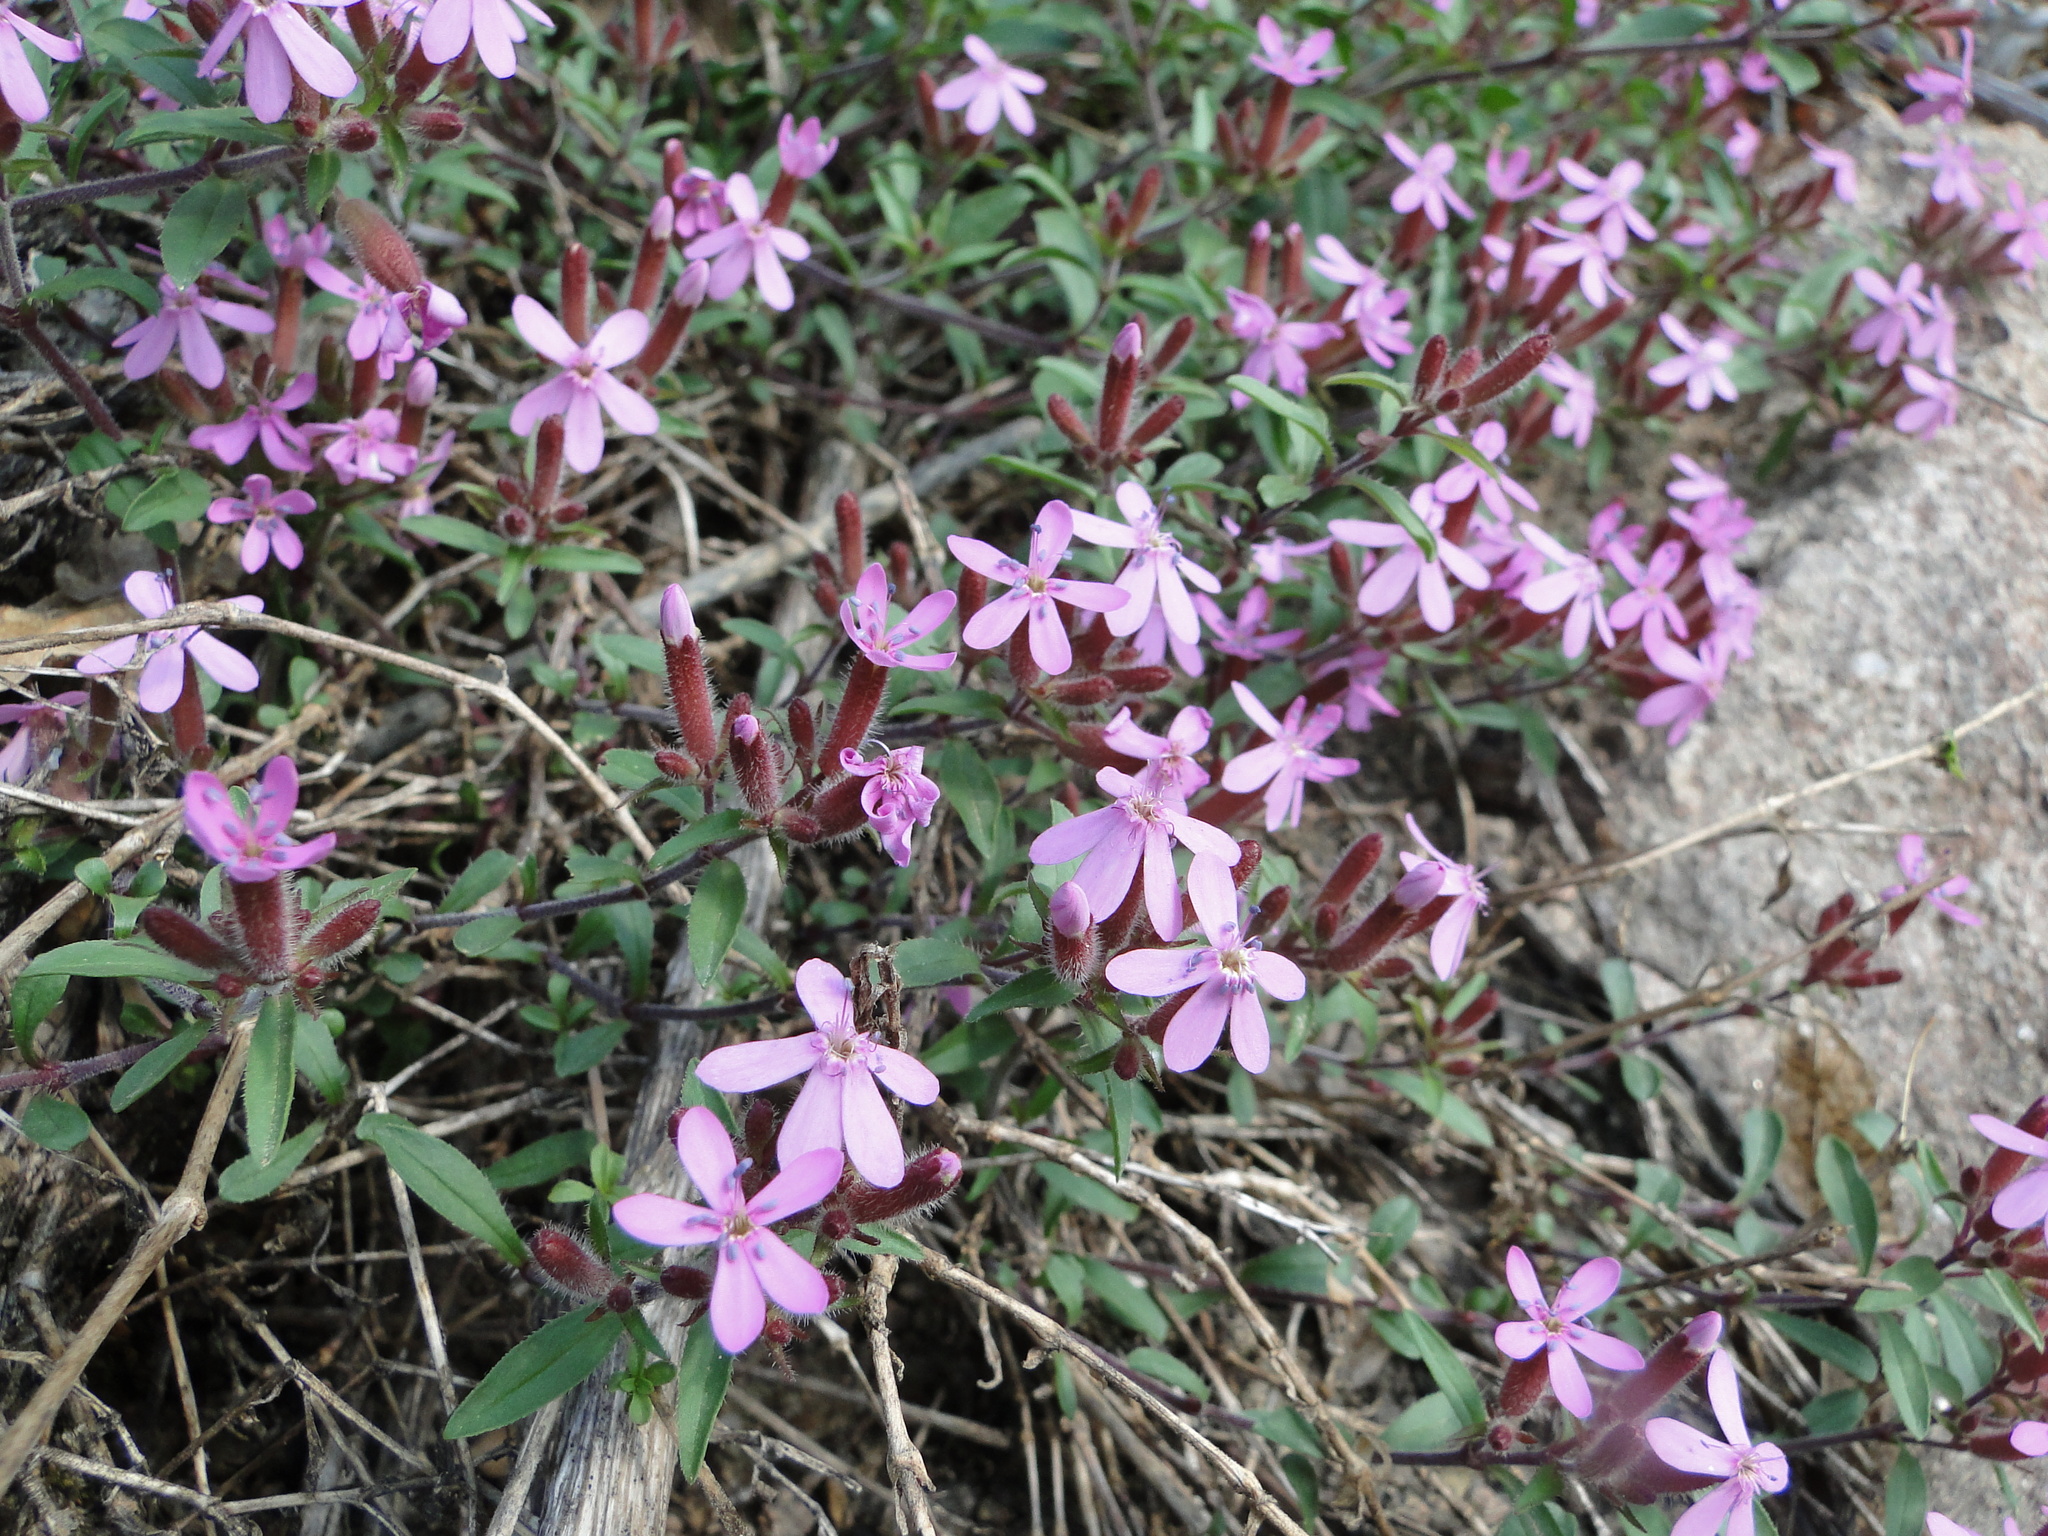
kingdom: Plantae
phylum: Tracheophyta
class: Magnoliopsida
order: Caryophyllales
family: Caryophyllaceae
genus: Saponaria
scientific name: Saponaria ocymoides
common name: Rock soapwort
